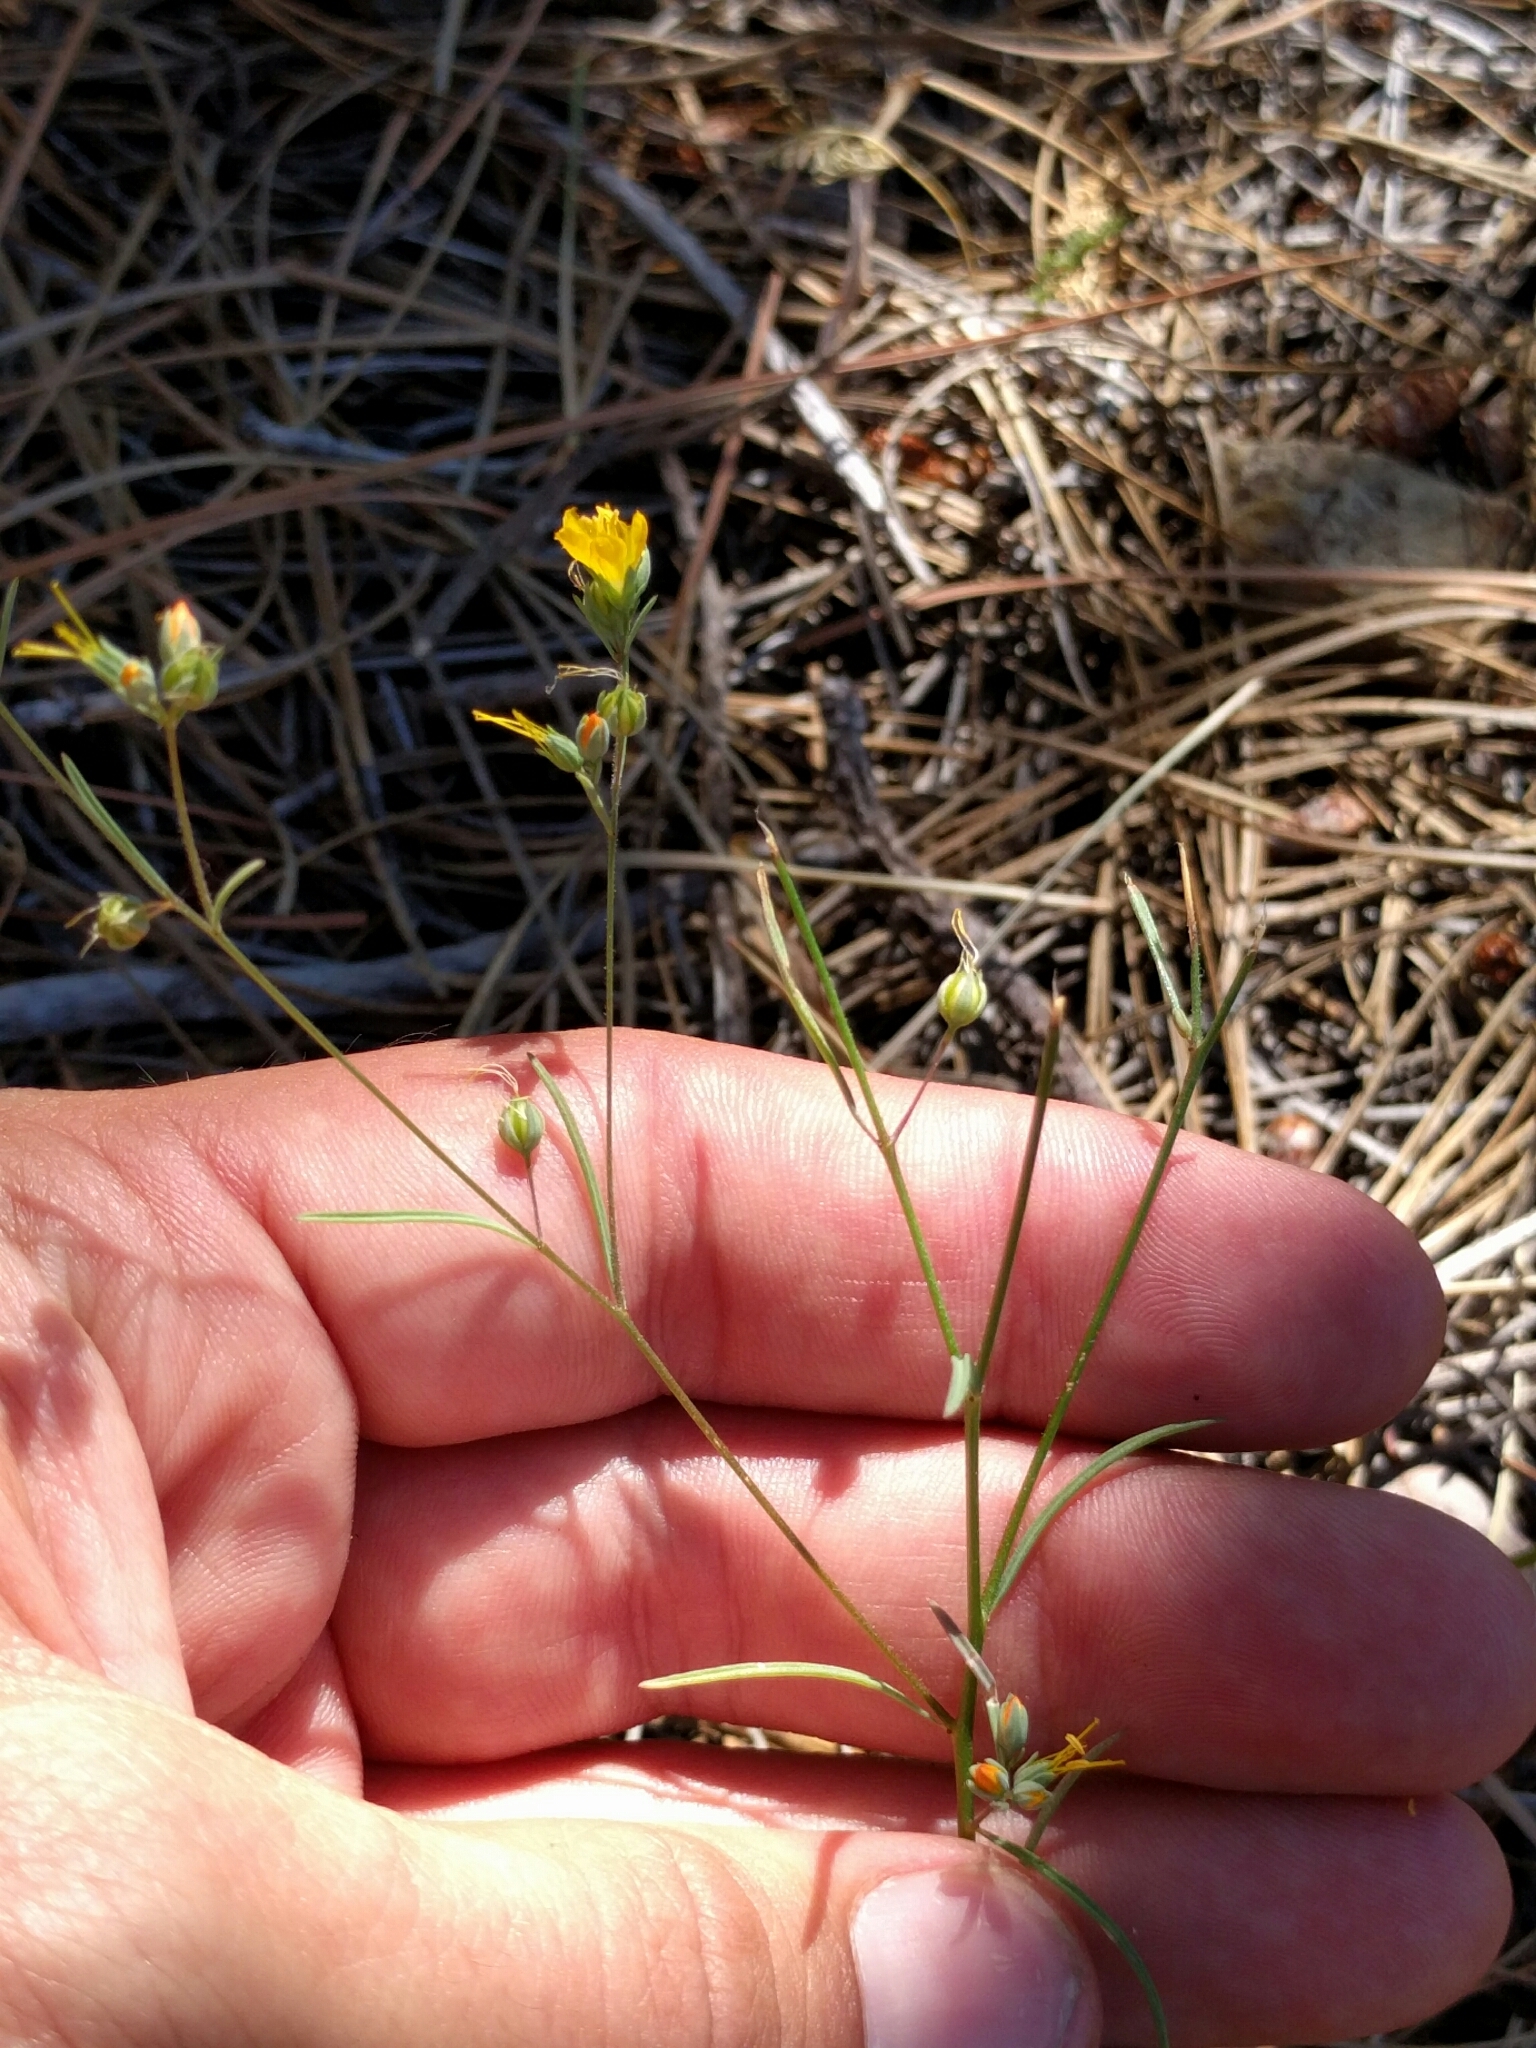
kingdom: Plantae
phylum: Tracheophyta
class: Magnoliopsida
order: Malpighiales
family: Linaceae
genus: Hesperolinon
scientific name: Hesperolinon breweri
